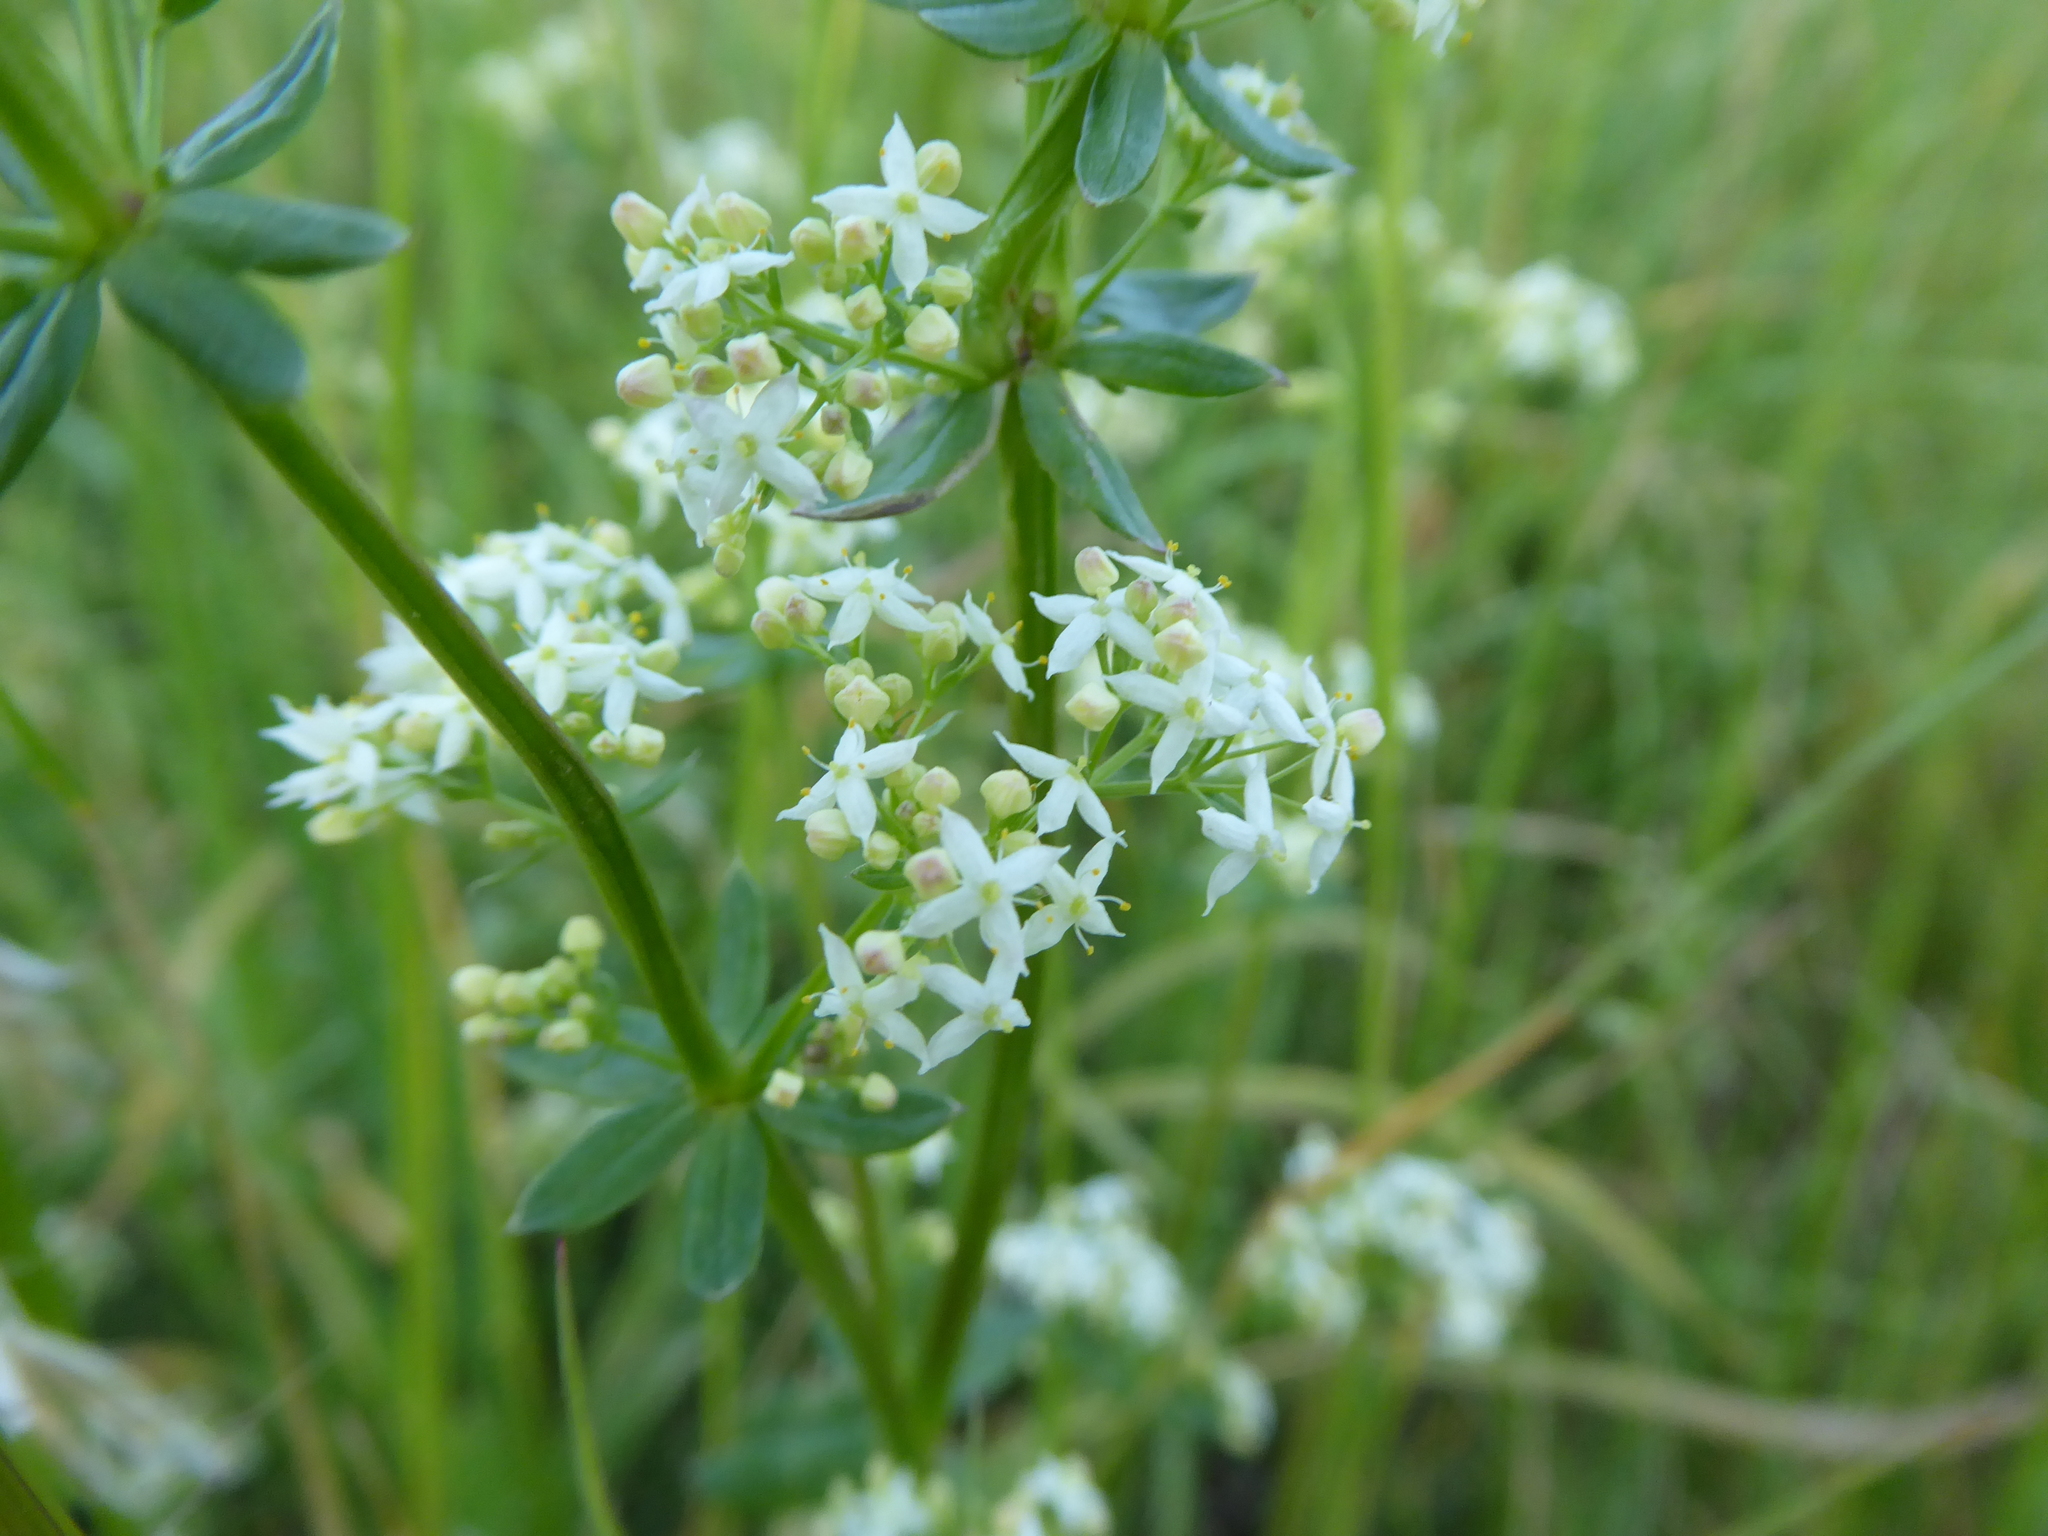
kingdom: Plantae
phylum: Tracheophyta
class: Magnoliopsida
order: Gentianales
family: Rubiaceae
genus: Galium
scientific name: Galium album
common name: White bedstraw
